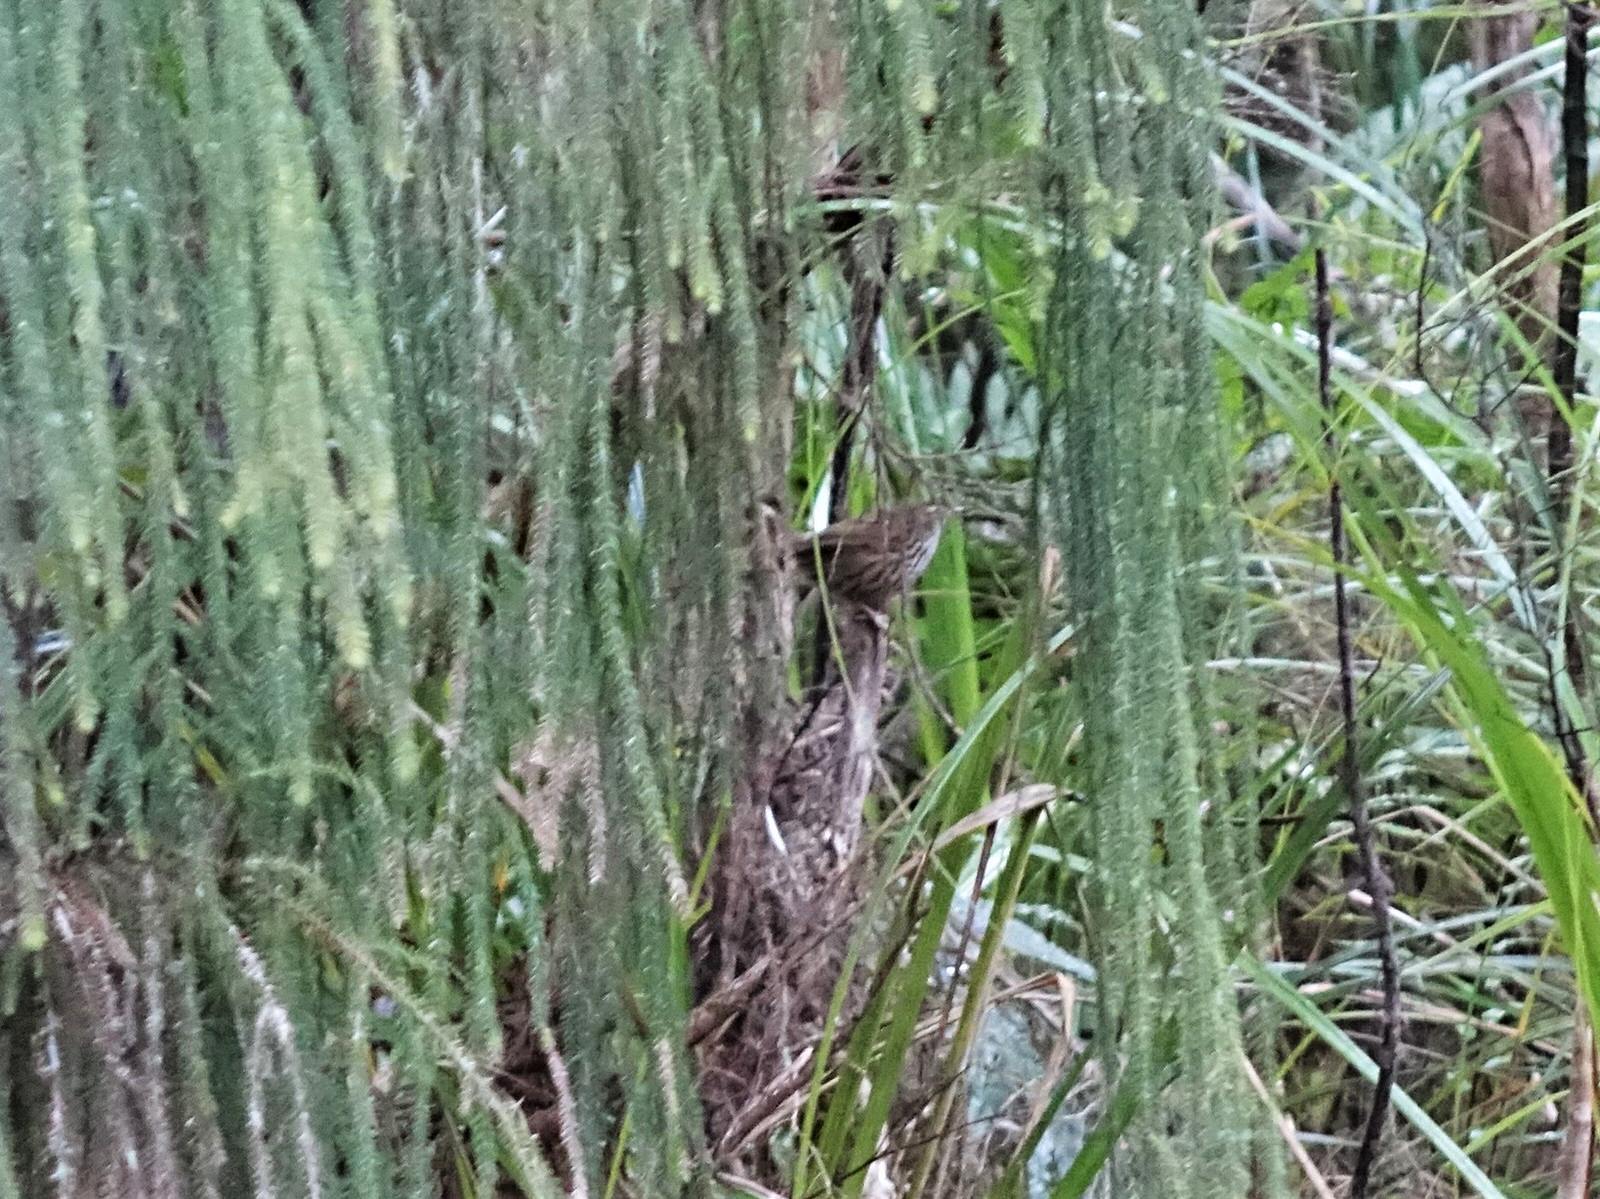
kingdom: Animalia
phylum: Chordata
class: Aves
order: Passeriformes
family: Locustellidae
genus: Megalurus
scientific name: Megalurus punctatus
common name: New zealand fernbird
